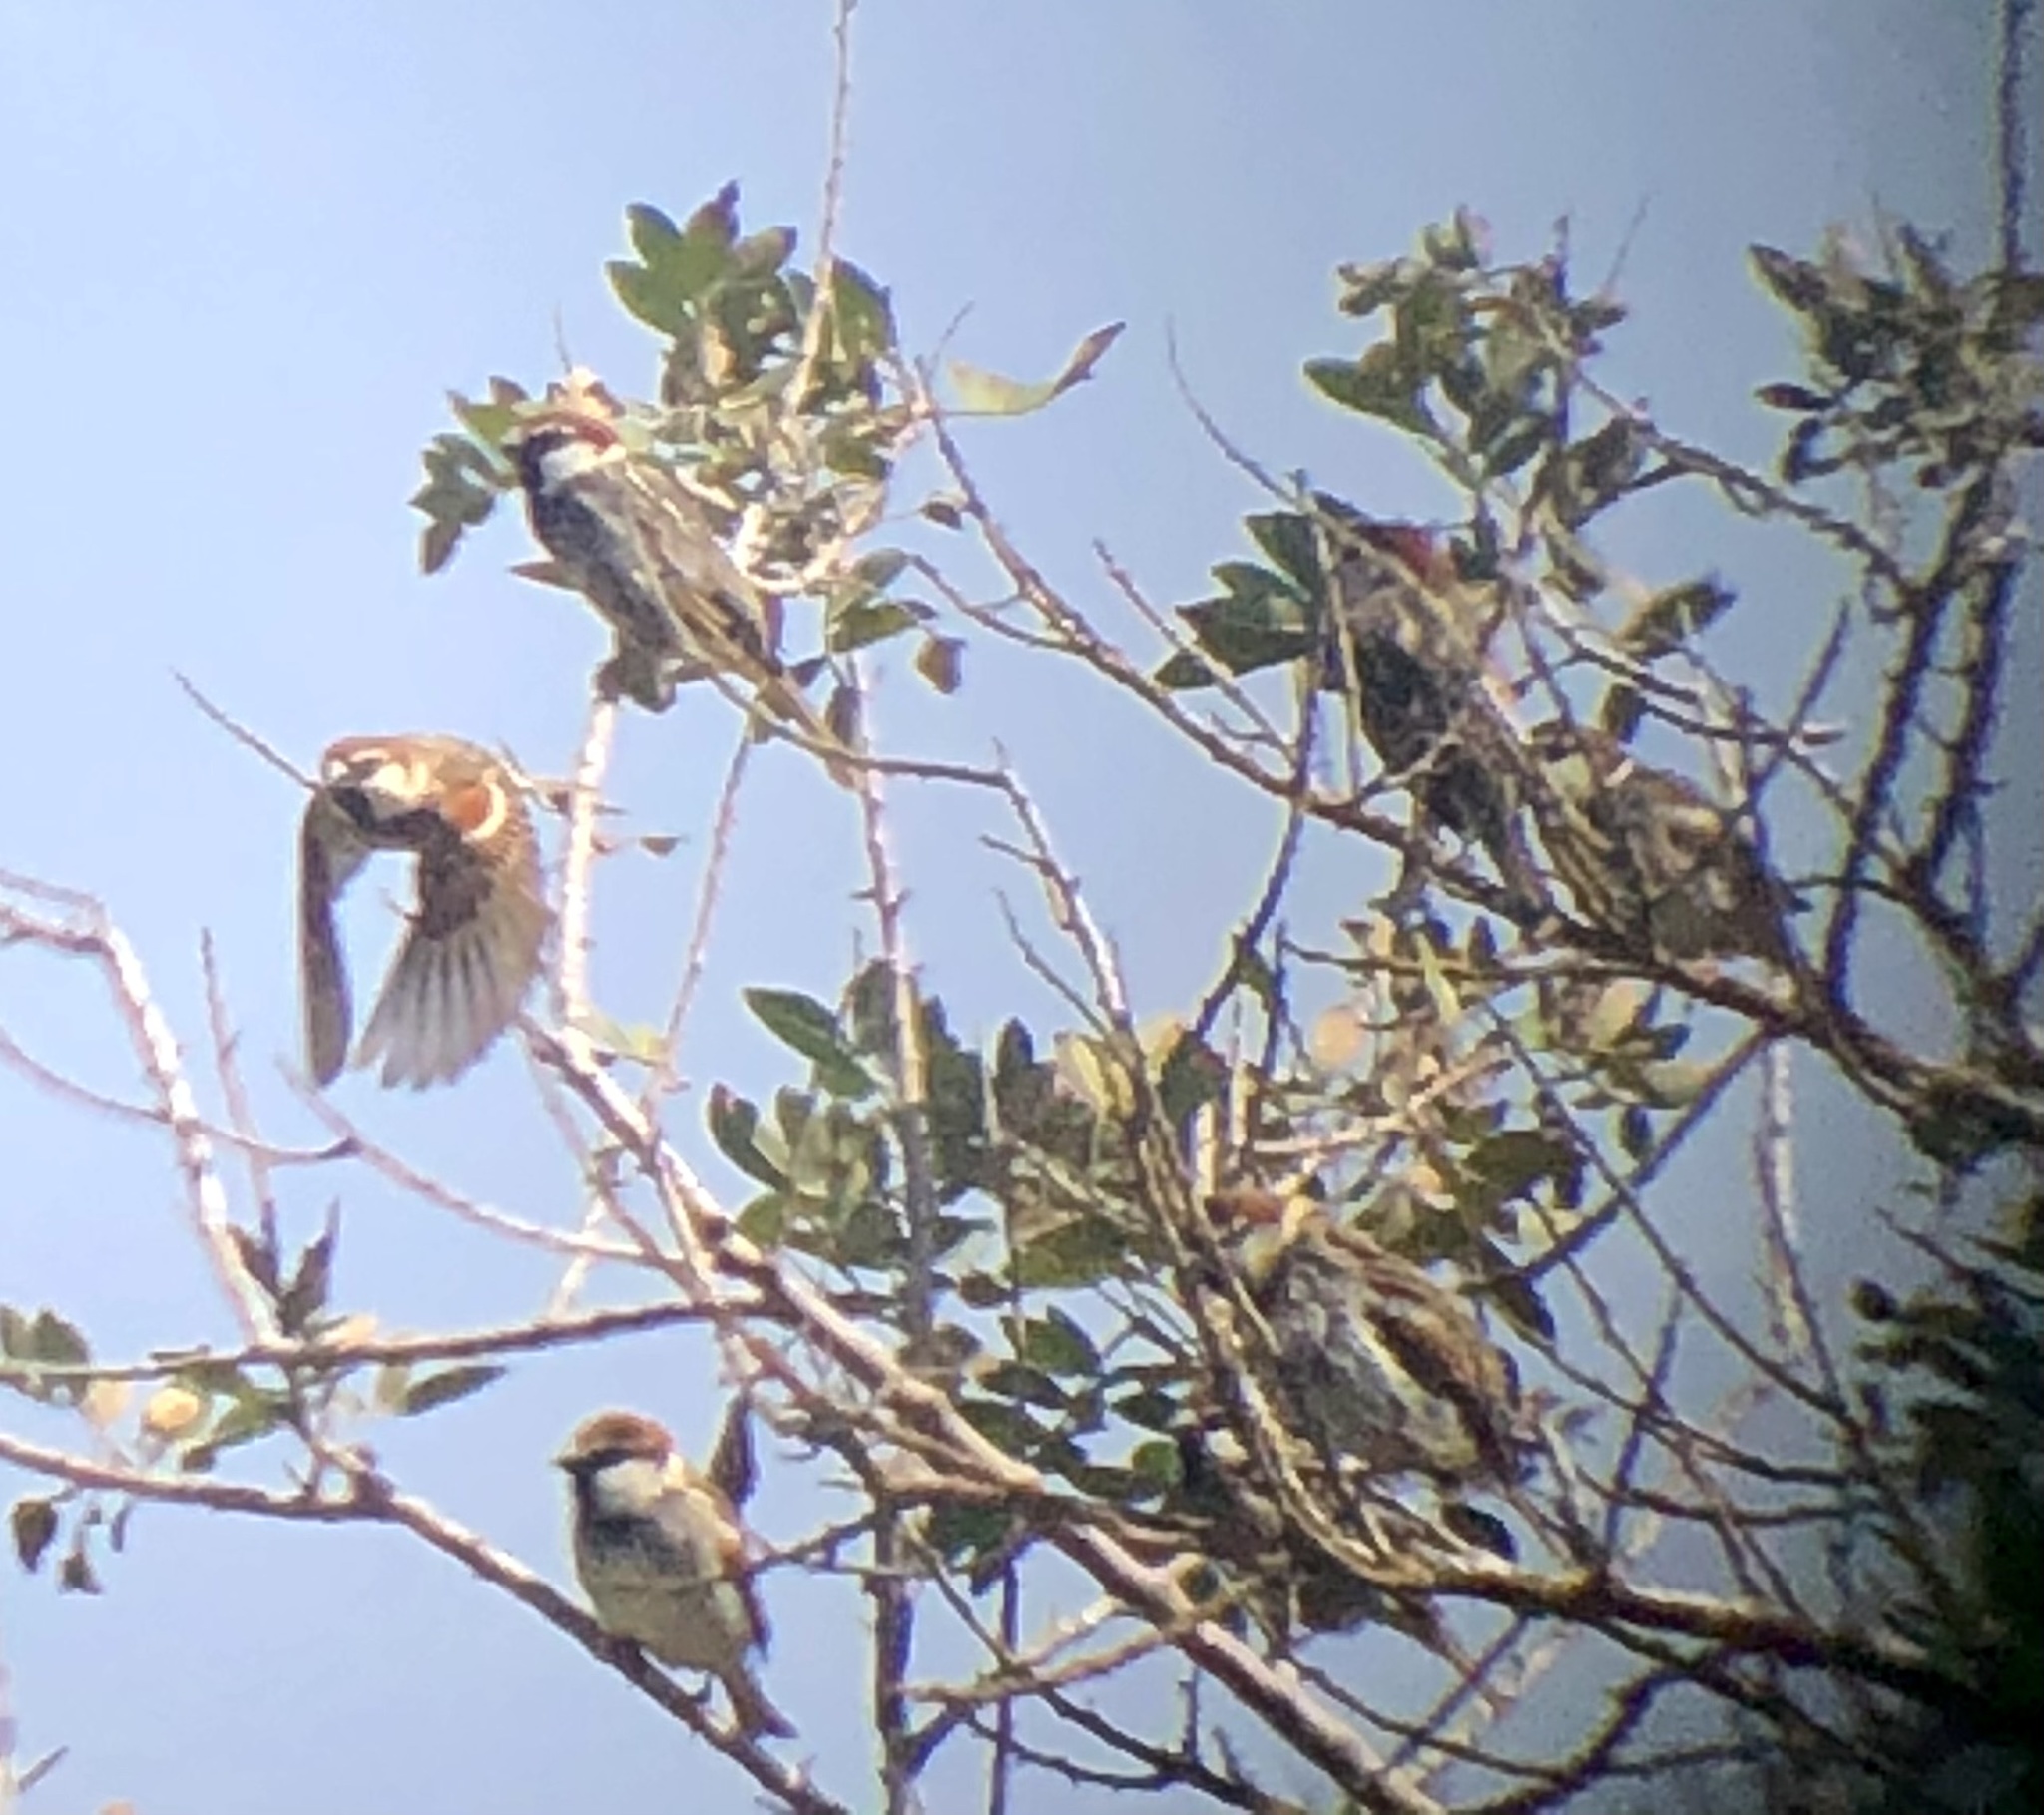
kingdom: Animalia
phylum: Chordata
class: Aves
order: Passeriformes
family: Passeridae
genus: Passer
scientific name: Passer hispaniolensis
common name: Spanish sparrow
